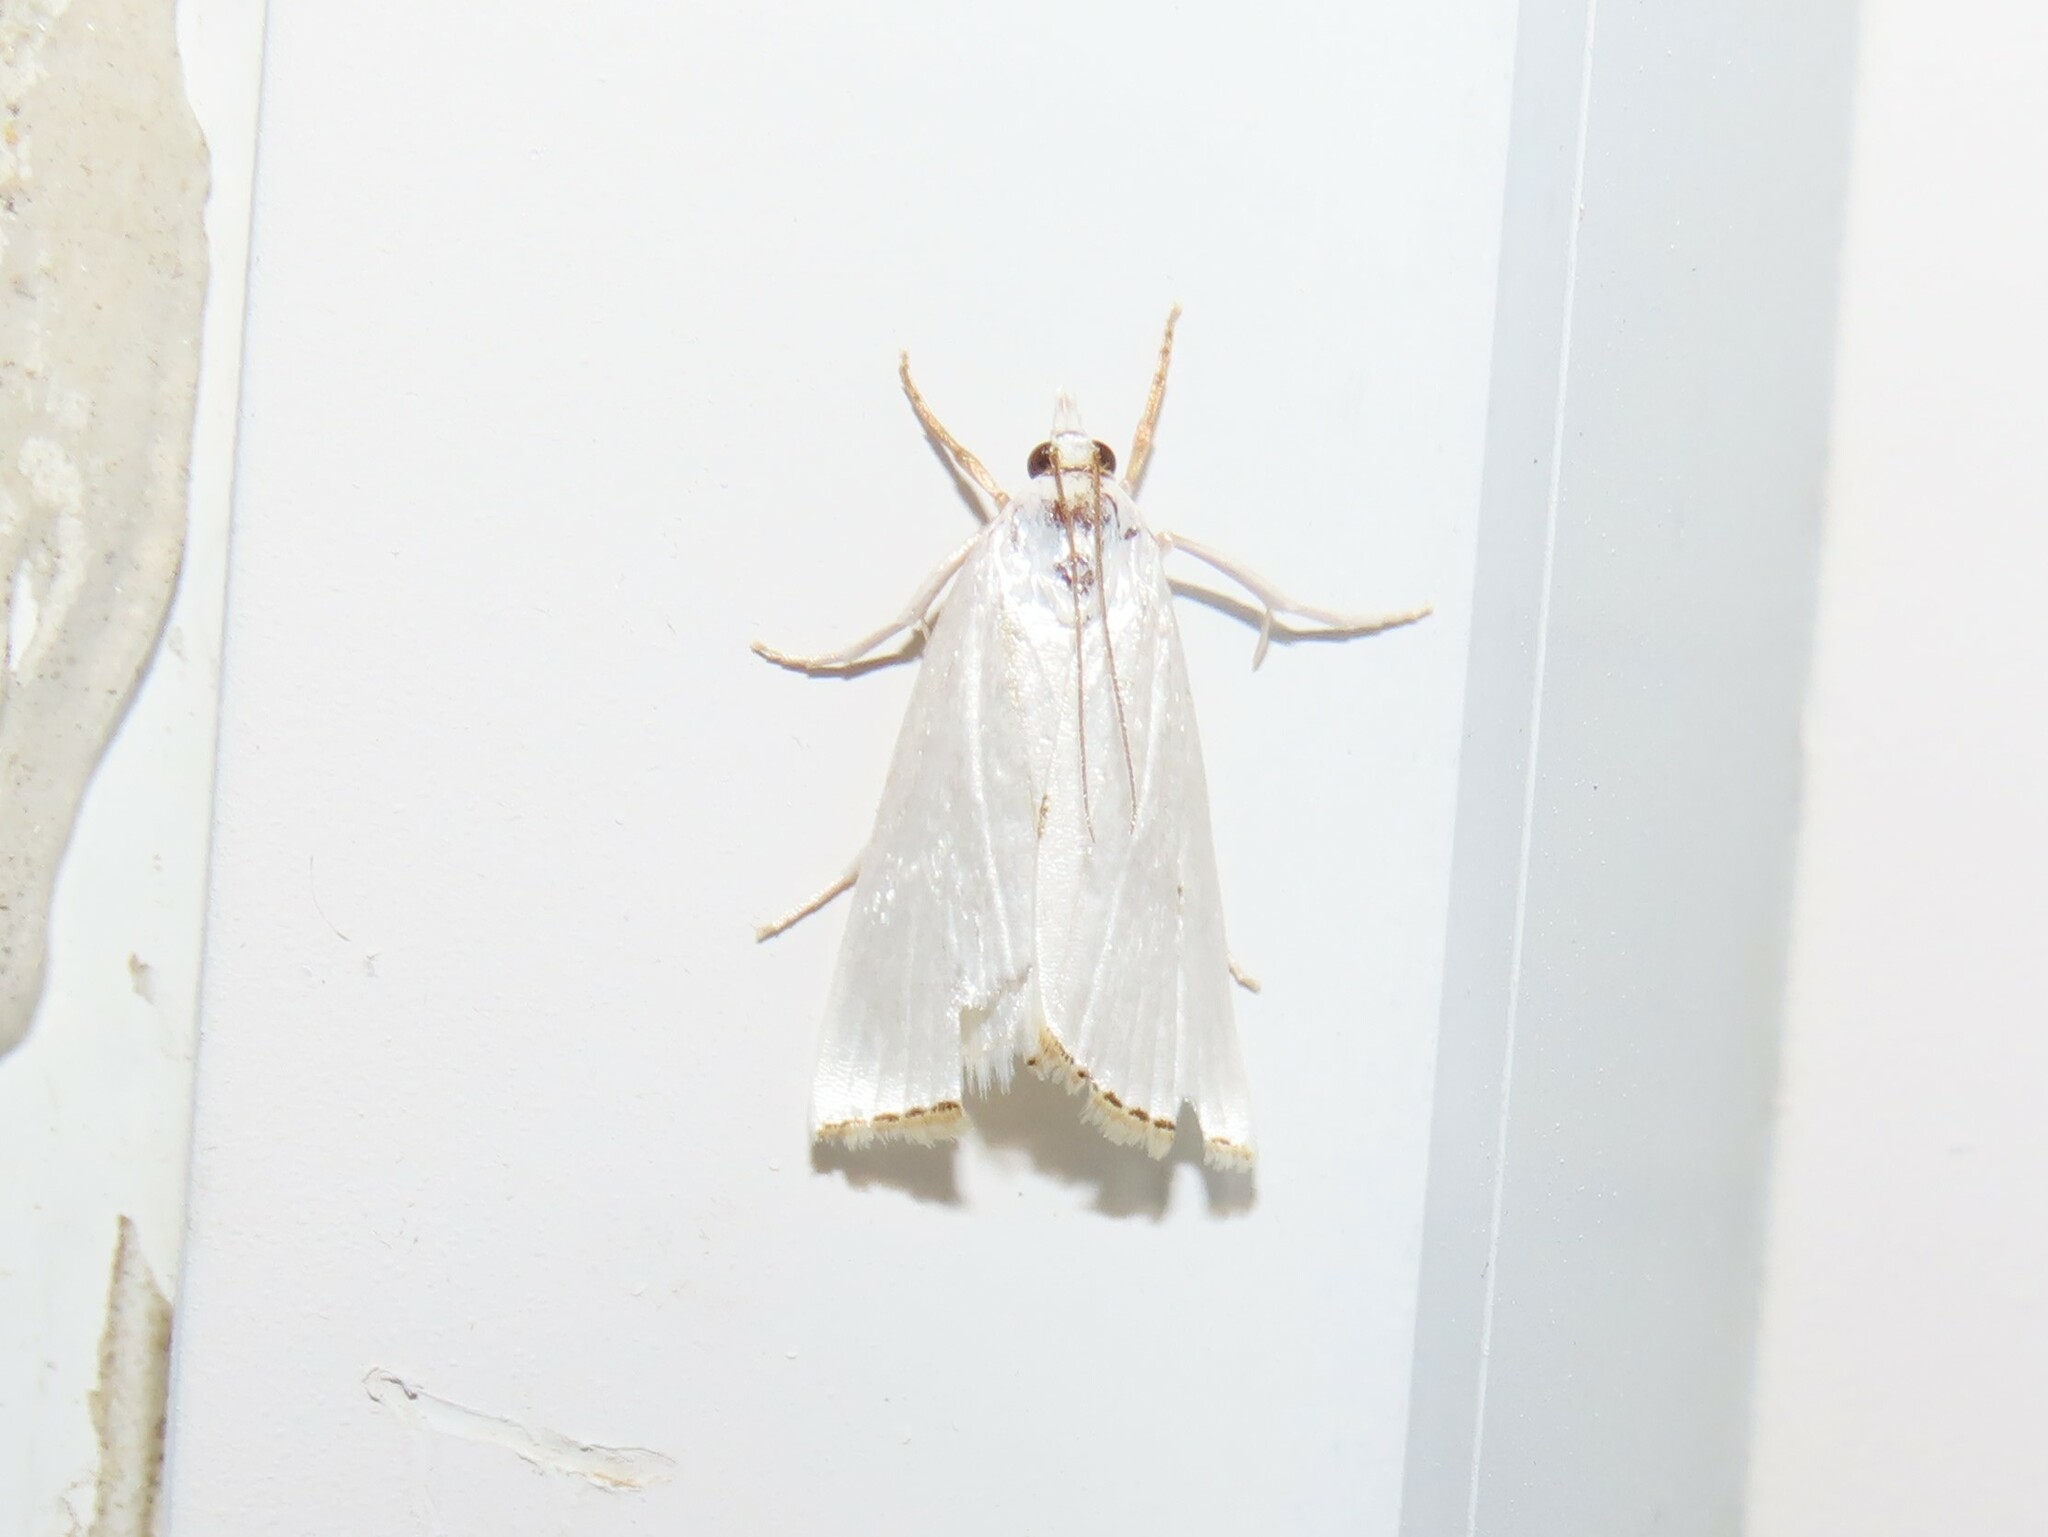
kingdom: Animalia
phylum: Arthropoda
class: Insecta
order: Lepidoptera
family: Crambidae
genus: Argyria
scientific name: Argyria nivalis
